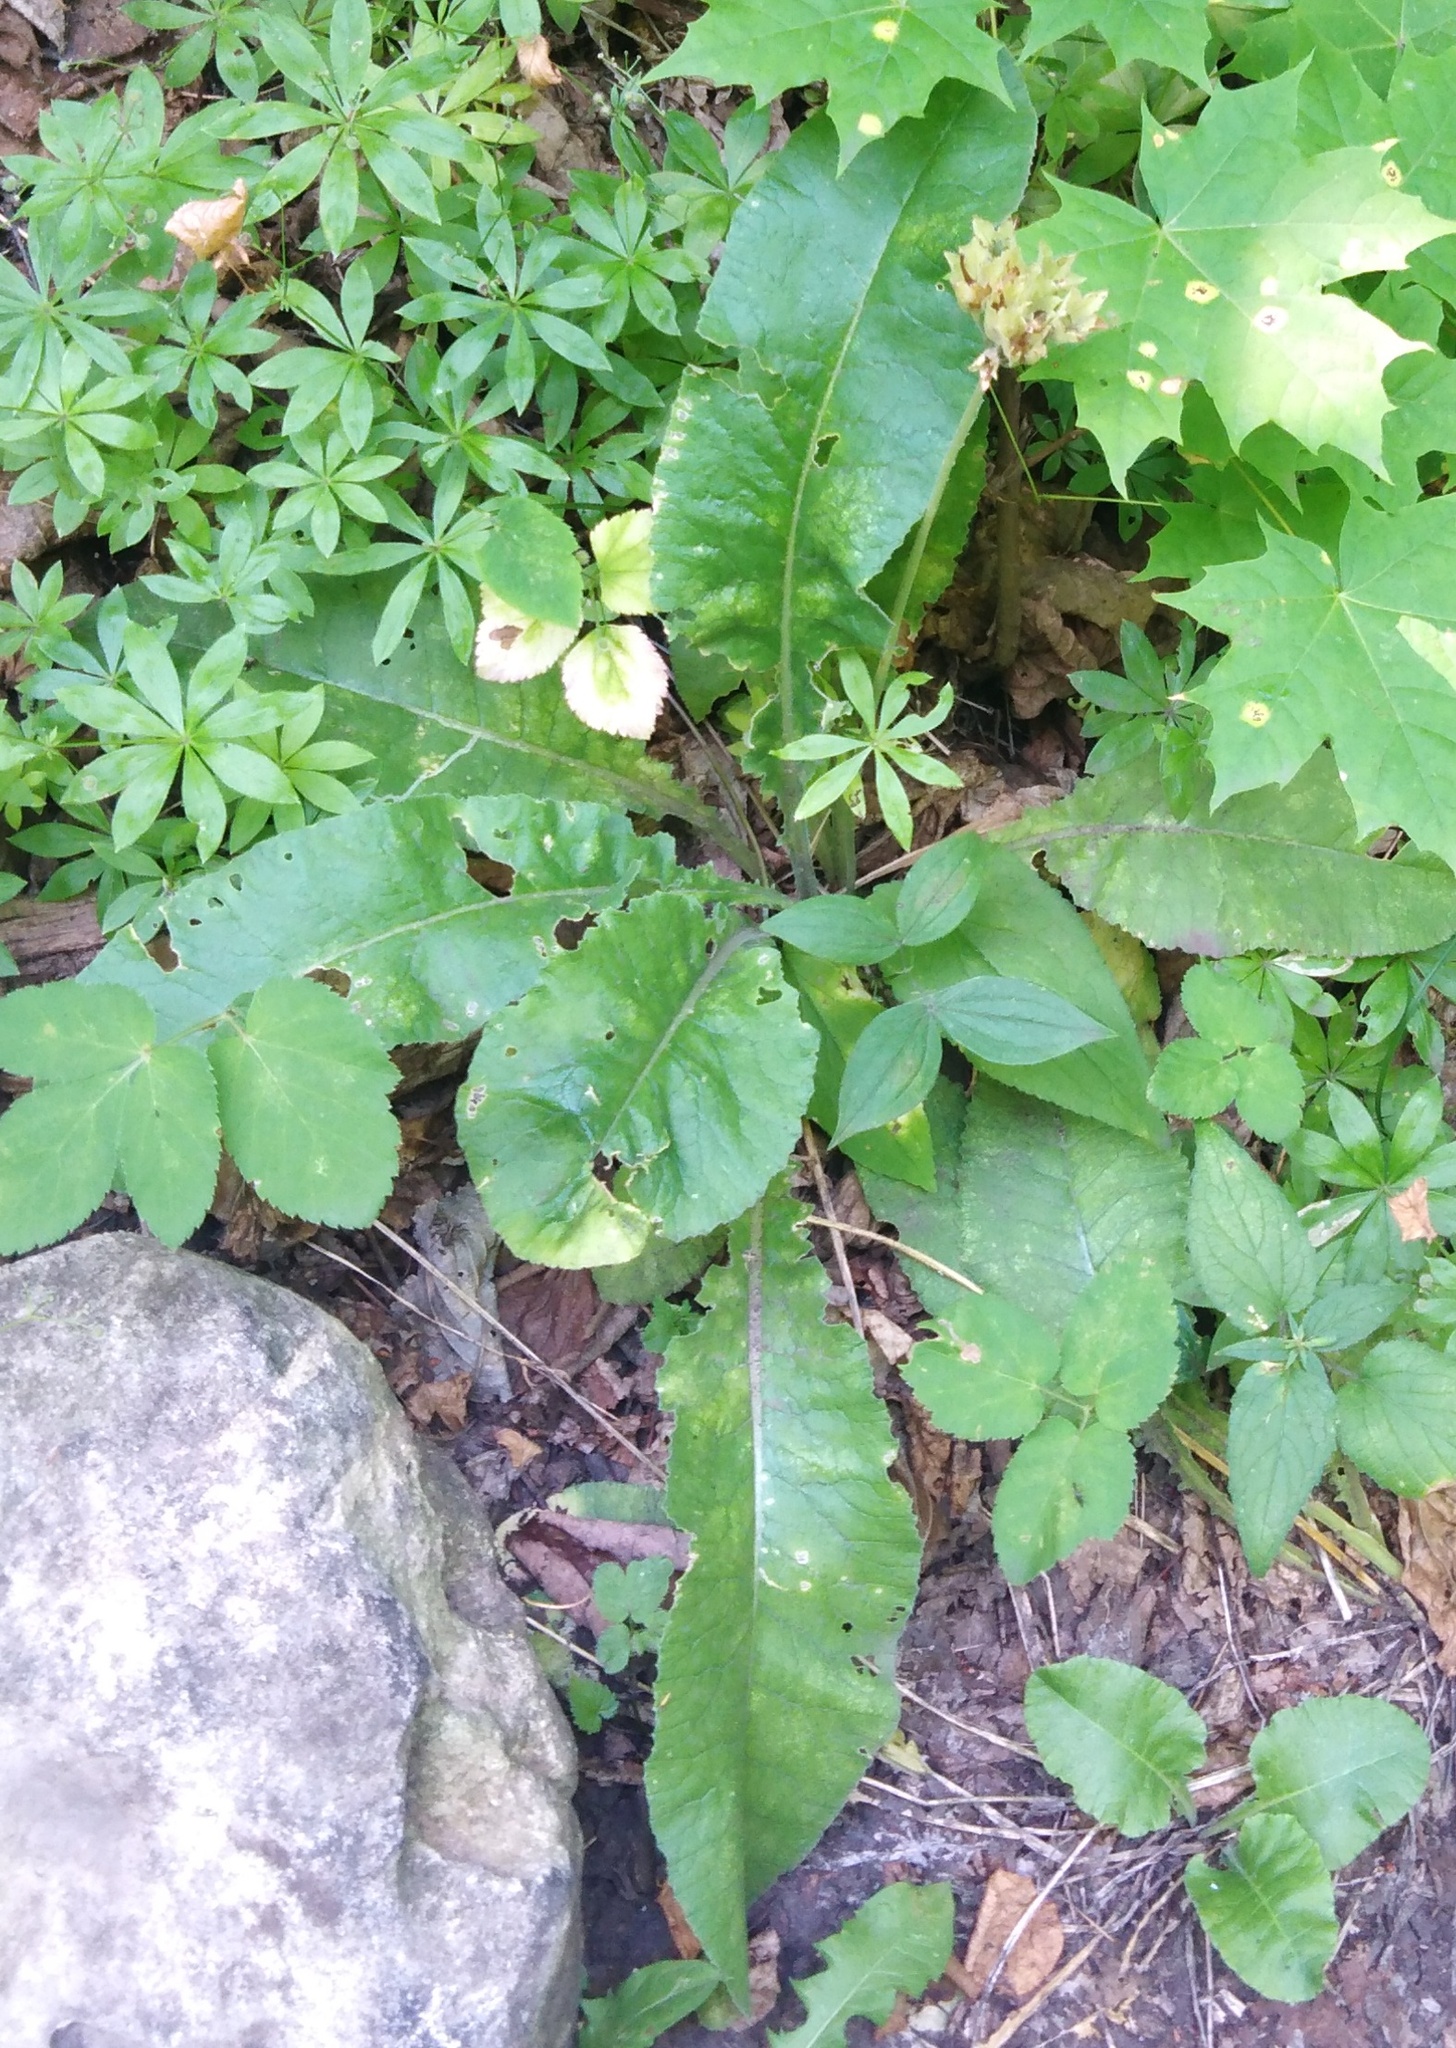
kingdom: Plantae
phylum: Tracheophyta
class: Magnoliopsida
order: Ericales
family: Primulaceae
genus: Primula
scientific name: Primula veris
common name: Cowslip
